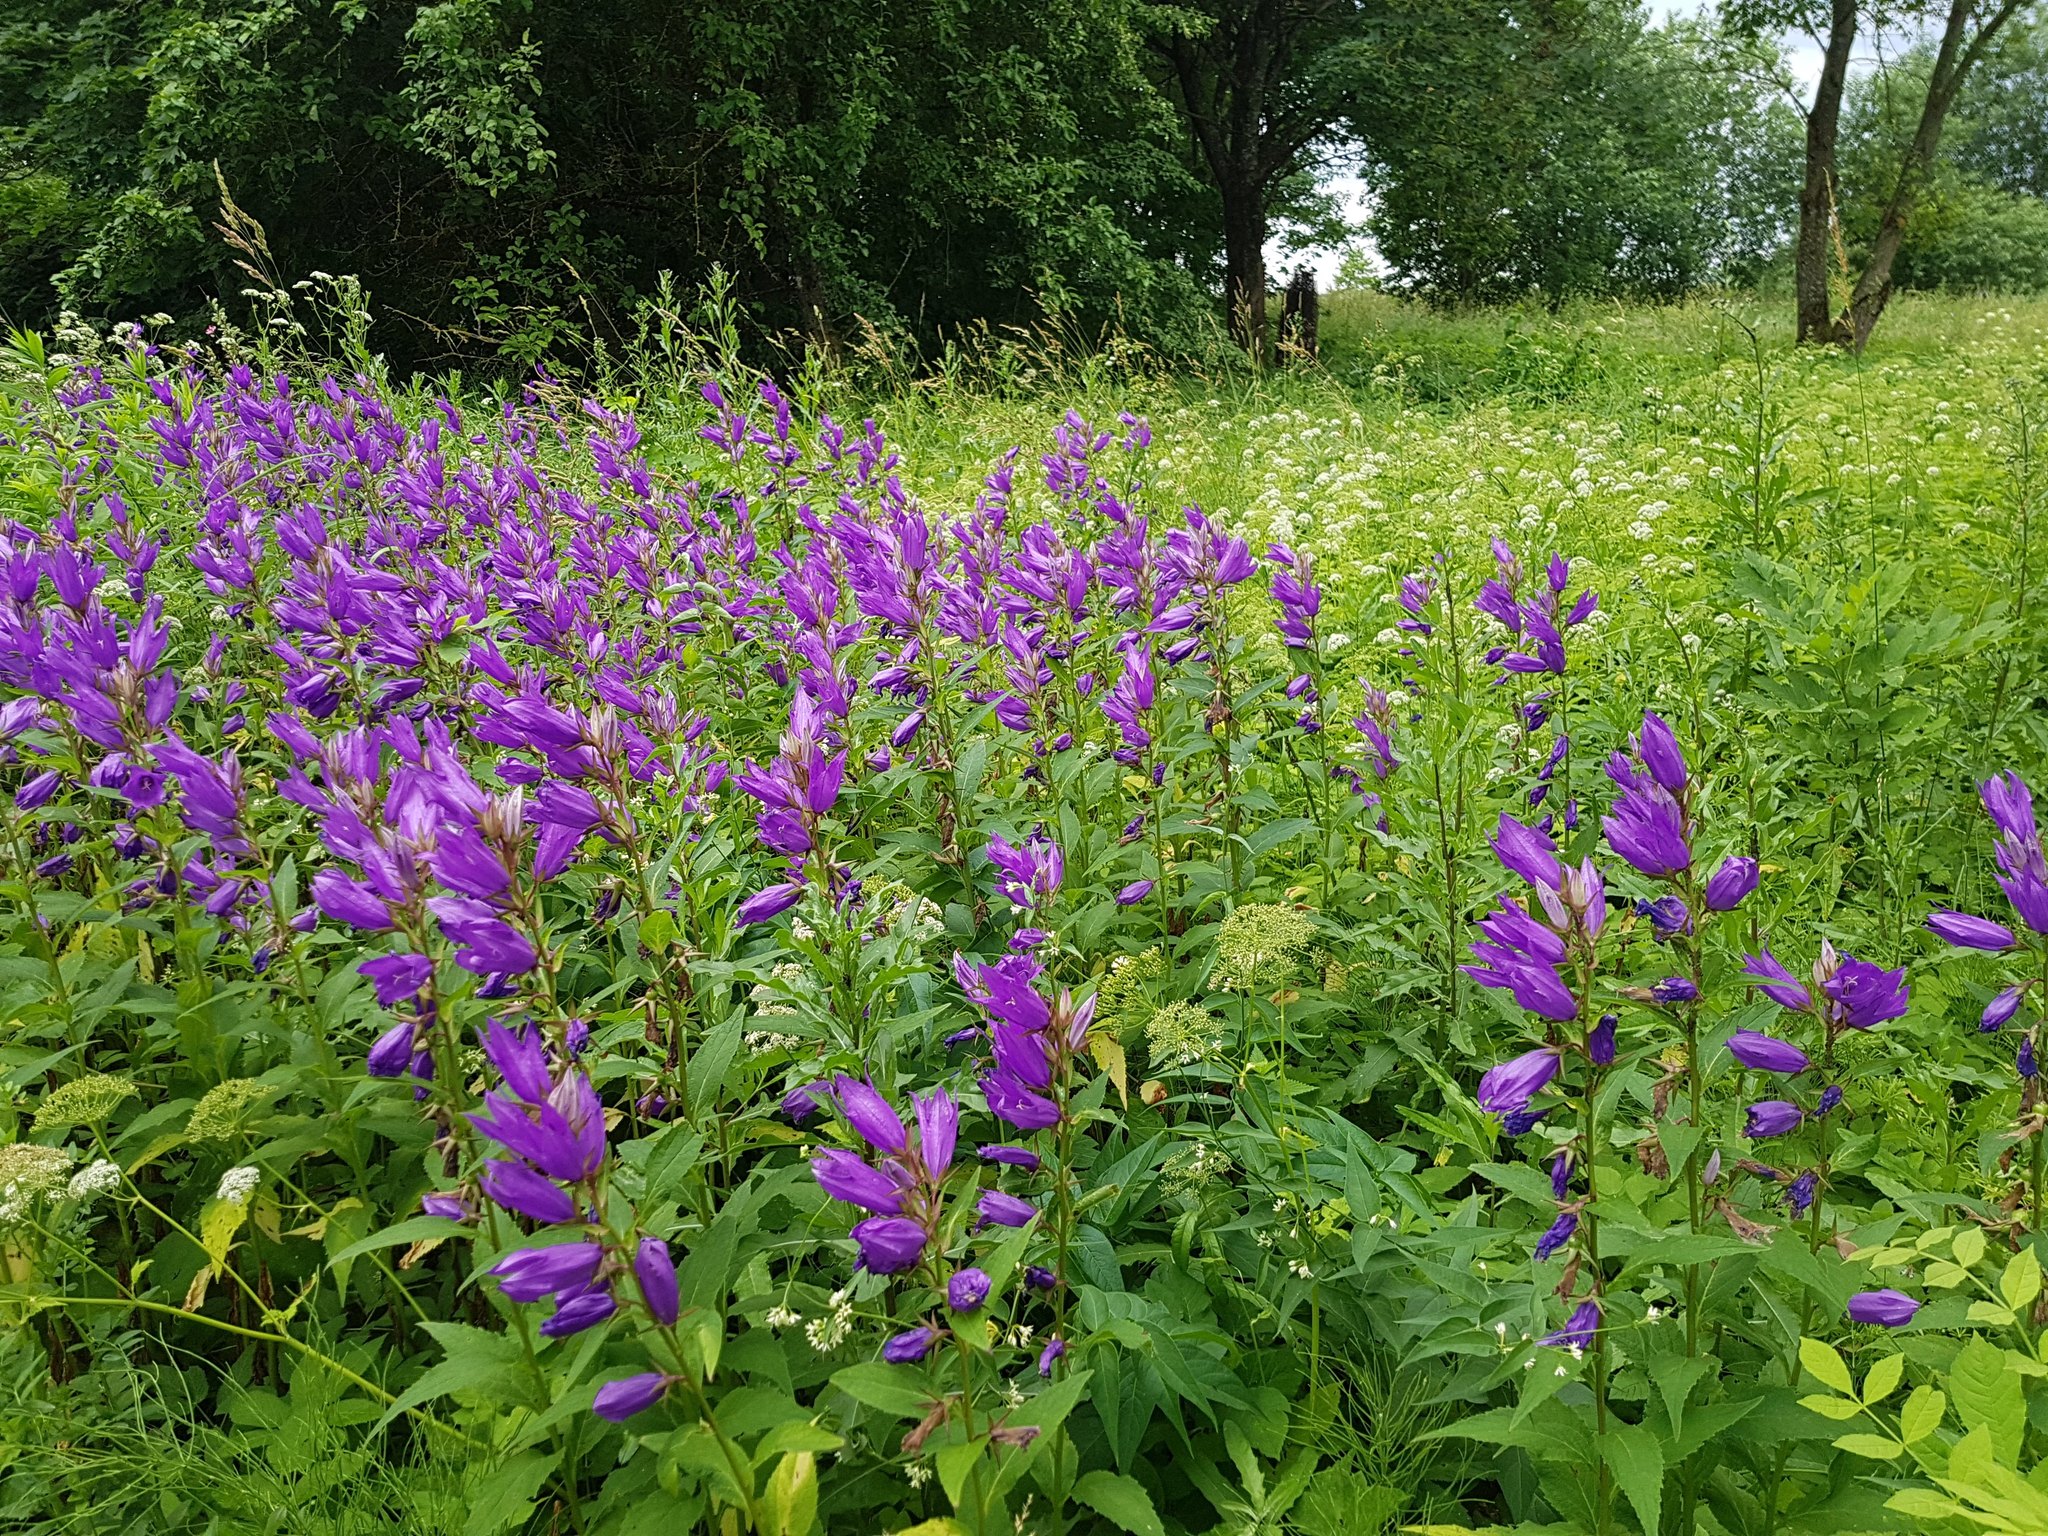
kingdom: Plantae
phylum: Tracheophyta
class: Magnoliopsida
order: Asterales
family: Campanulaceae
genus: Campanula
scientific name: Campanula latifolia
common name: Giant bellflower
